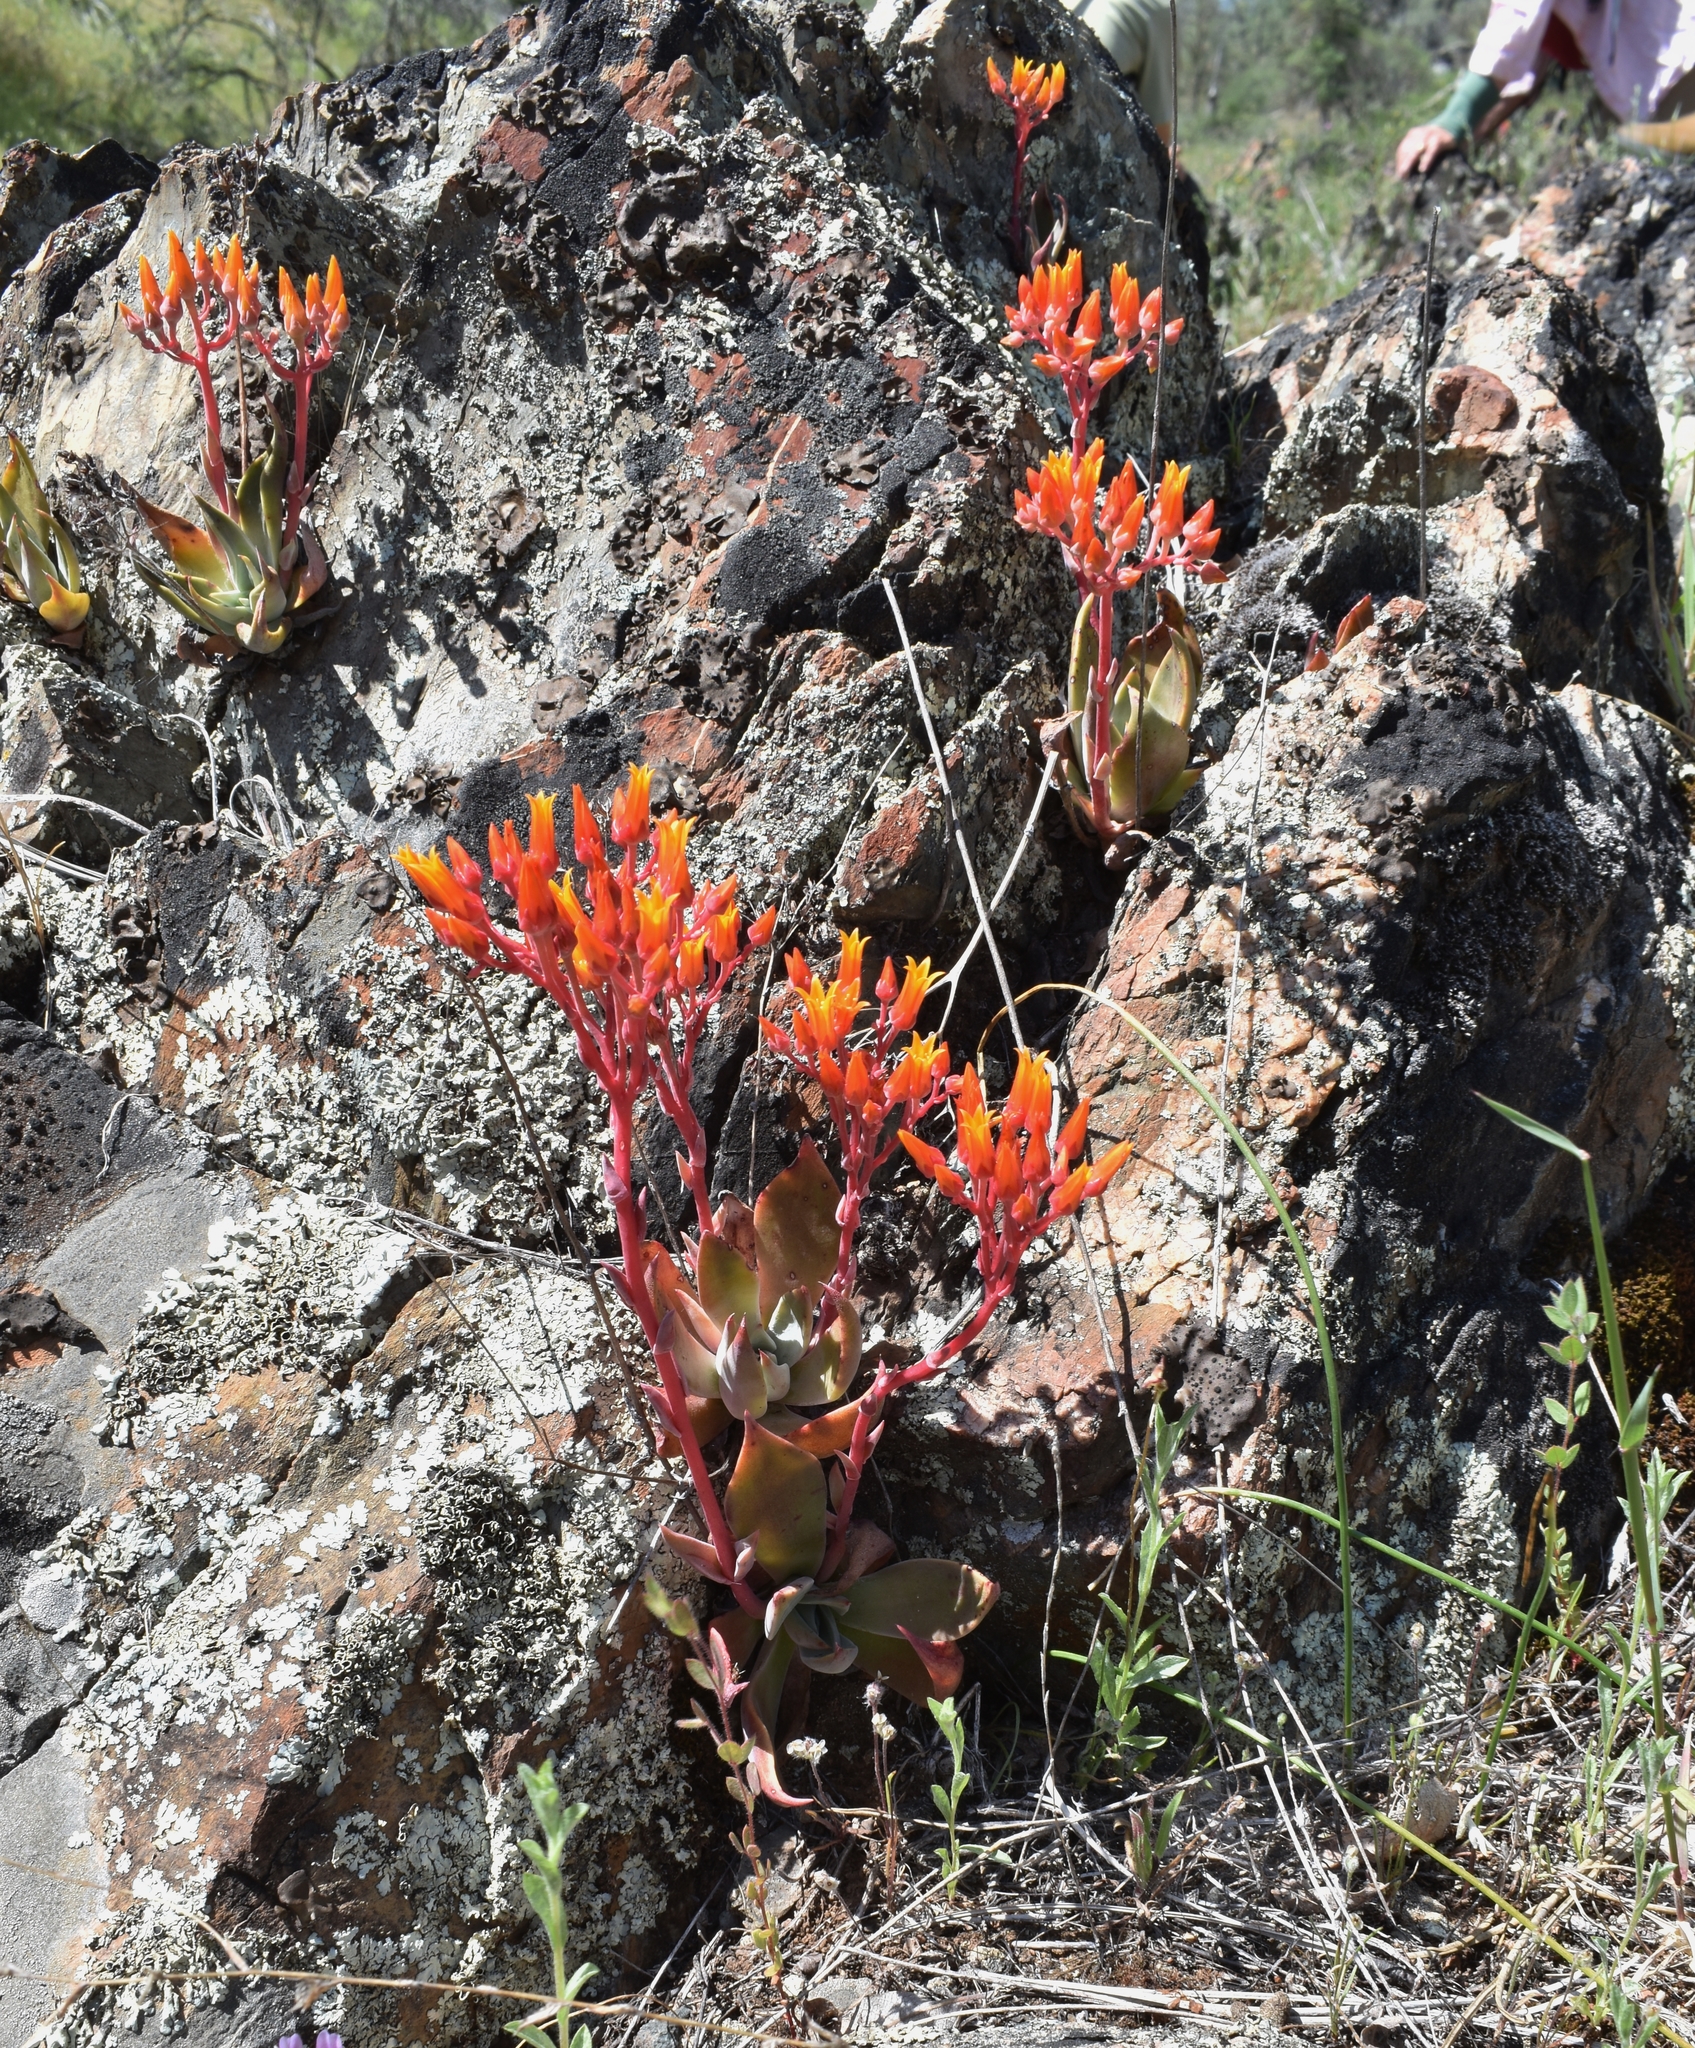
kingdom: Plantae
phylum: Tracheophyta
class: Magnoliopsida
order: Saxifragales
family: Crassulaceae
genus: Dudleya
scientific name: Dudleya cymosa
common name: Canyon dudleya
